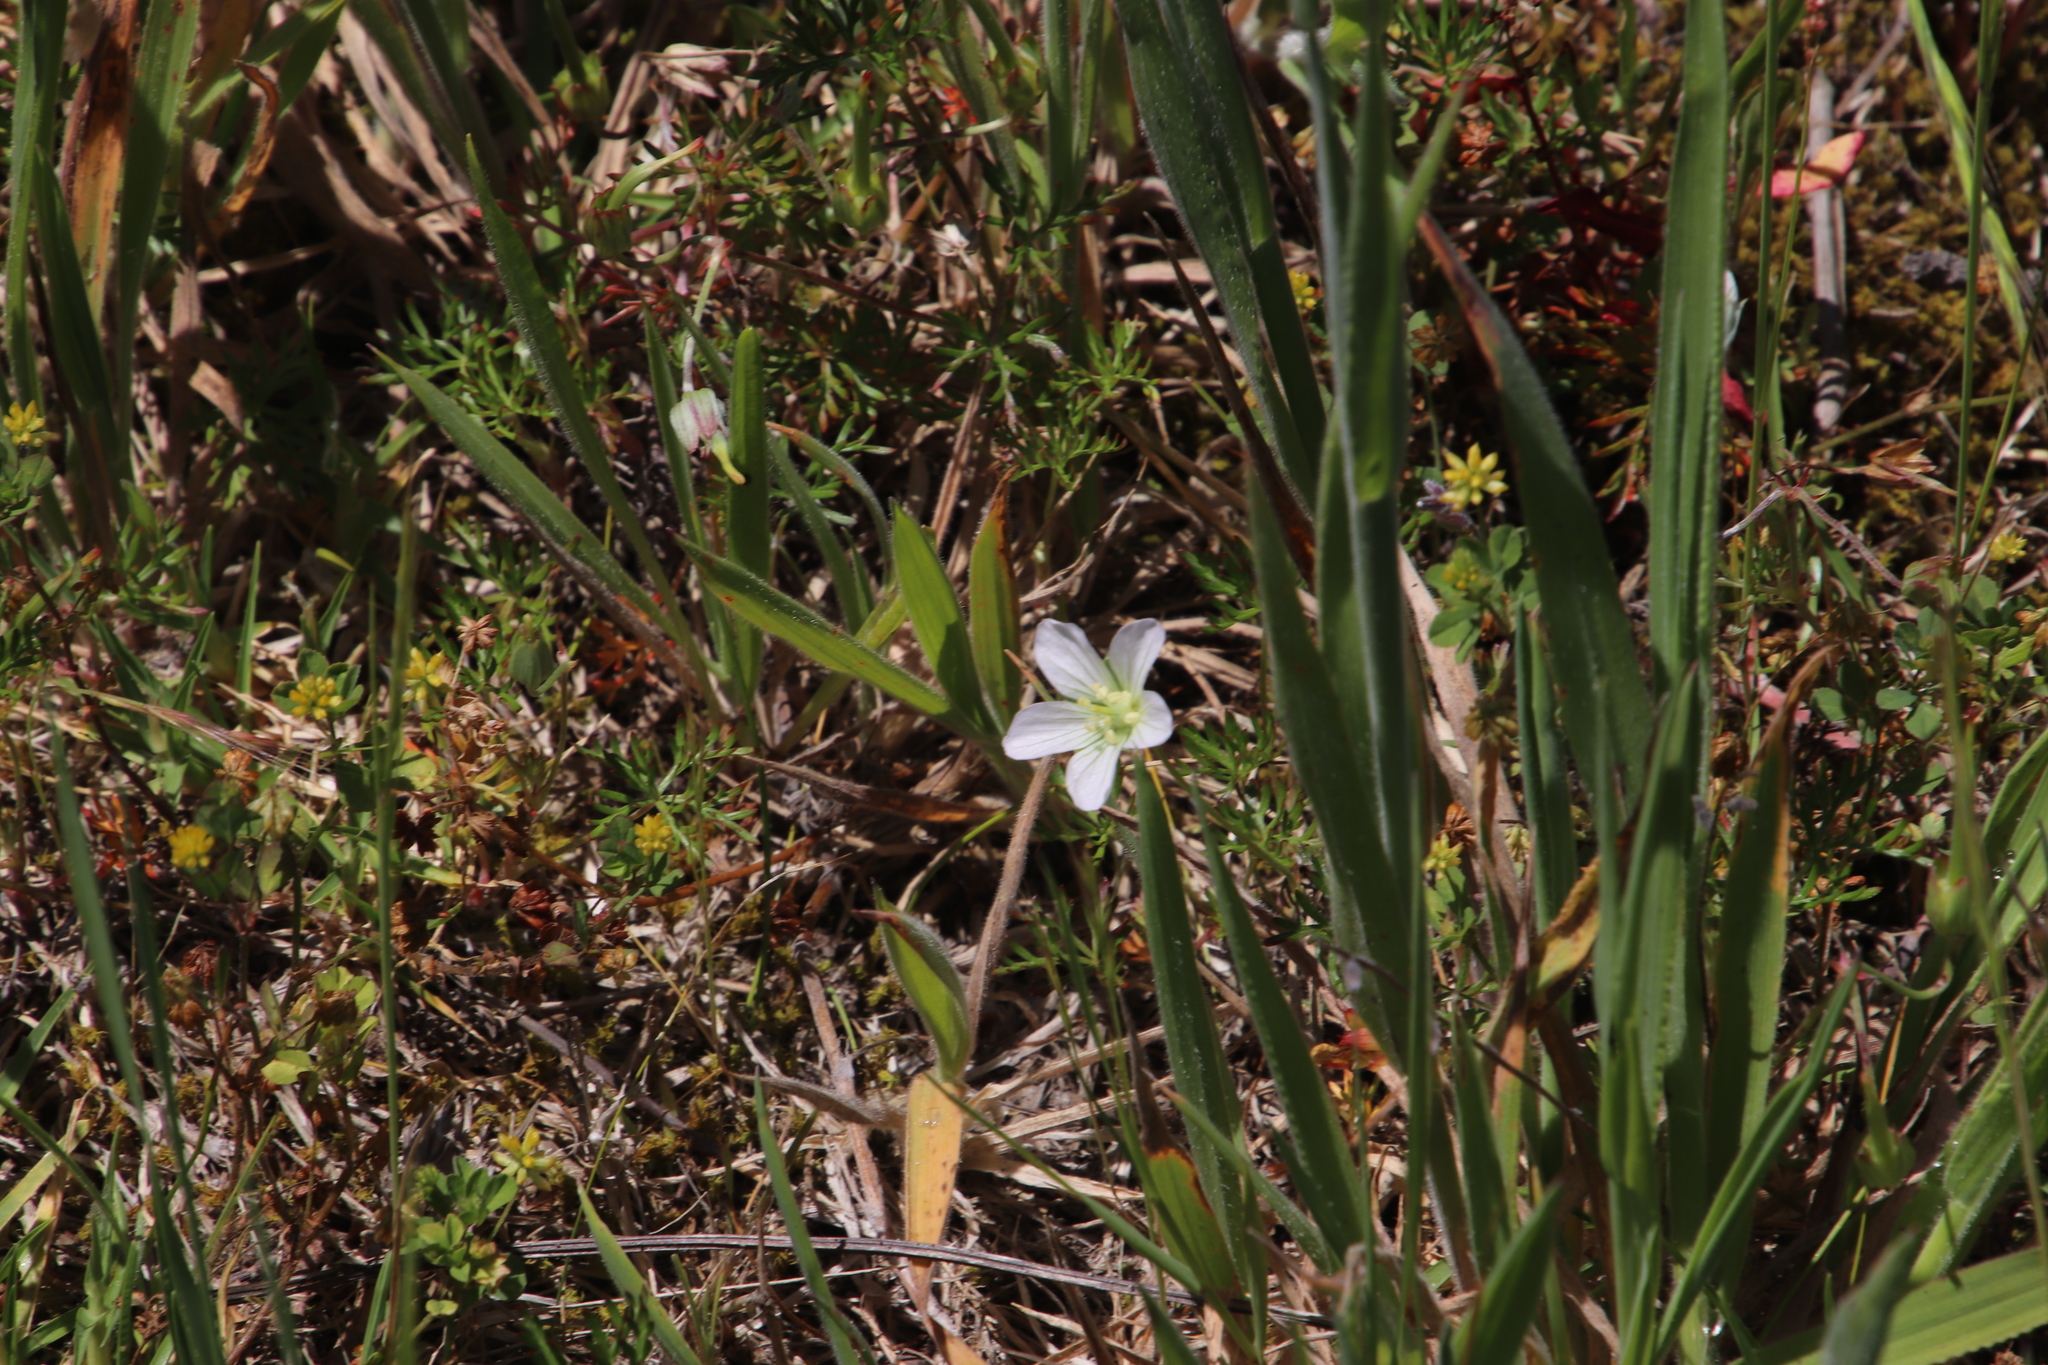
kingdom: Plantae
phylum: Tracheophyta
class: Magnoliopsida
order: Geraniales
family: Geraniaceae
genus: Geranium
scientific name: Geranium incanum
